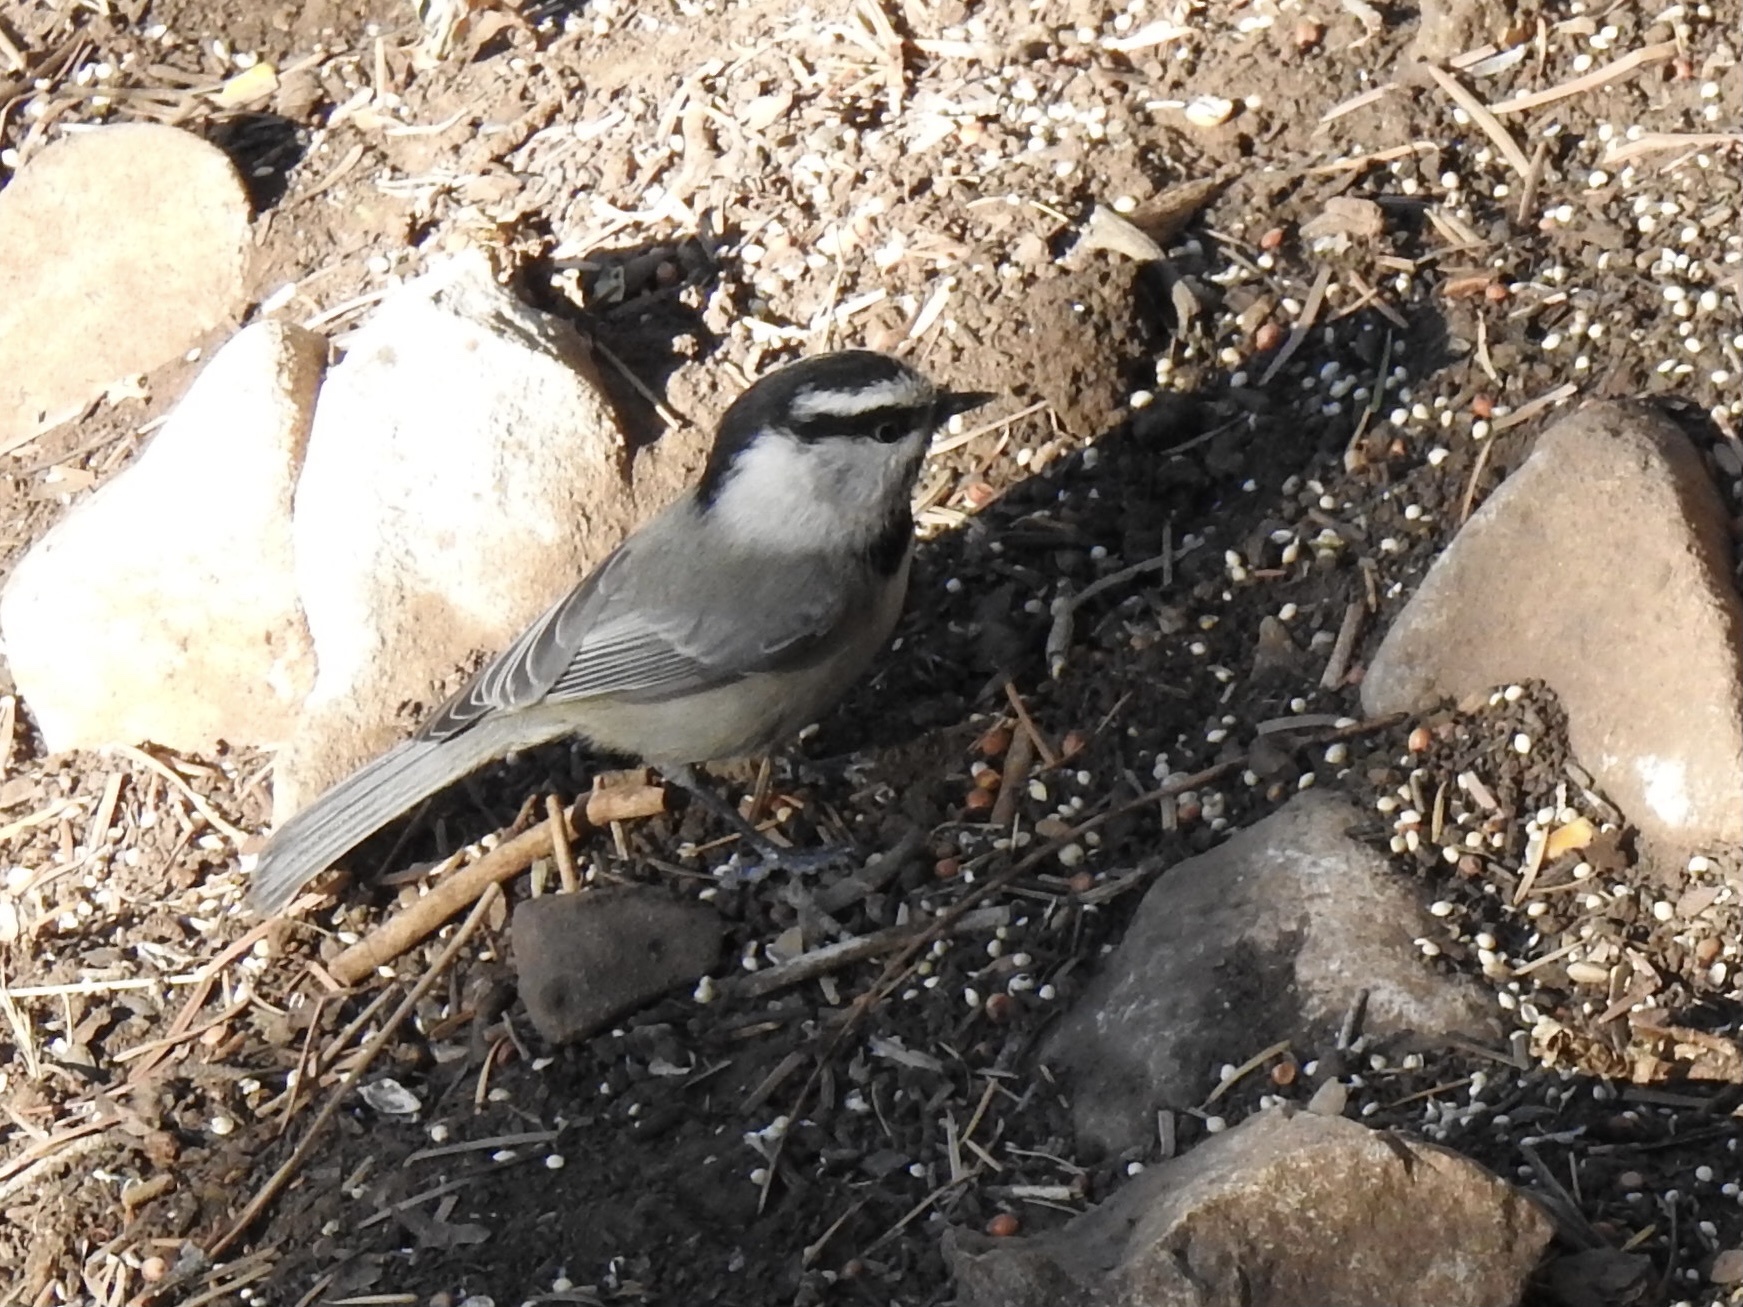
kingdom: Animalia
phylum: Chordata
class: Aves
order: Passeriformes
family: Paridae
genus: Poecile
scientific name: Poecile gambeli
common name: Mountain chickadee
